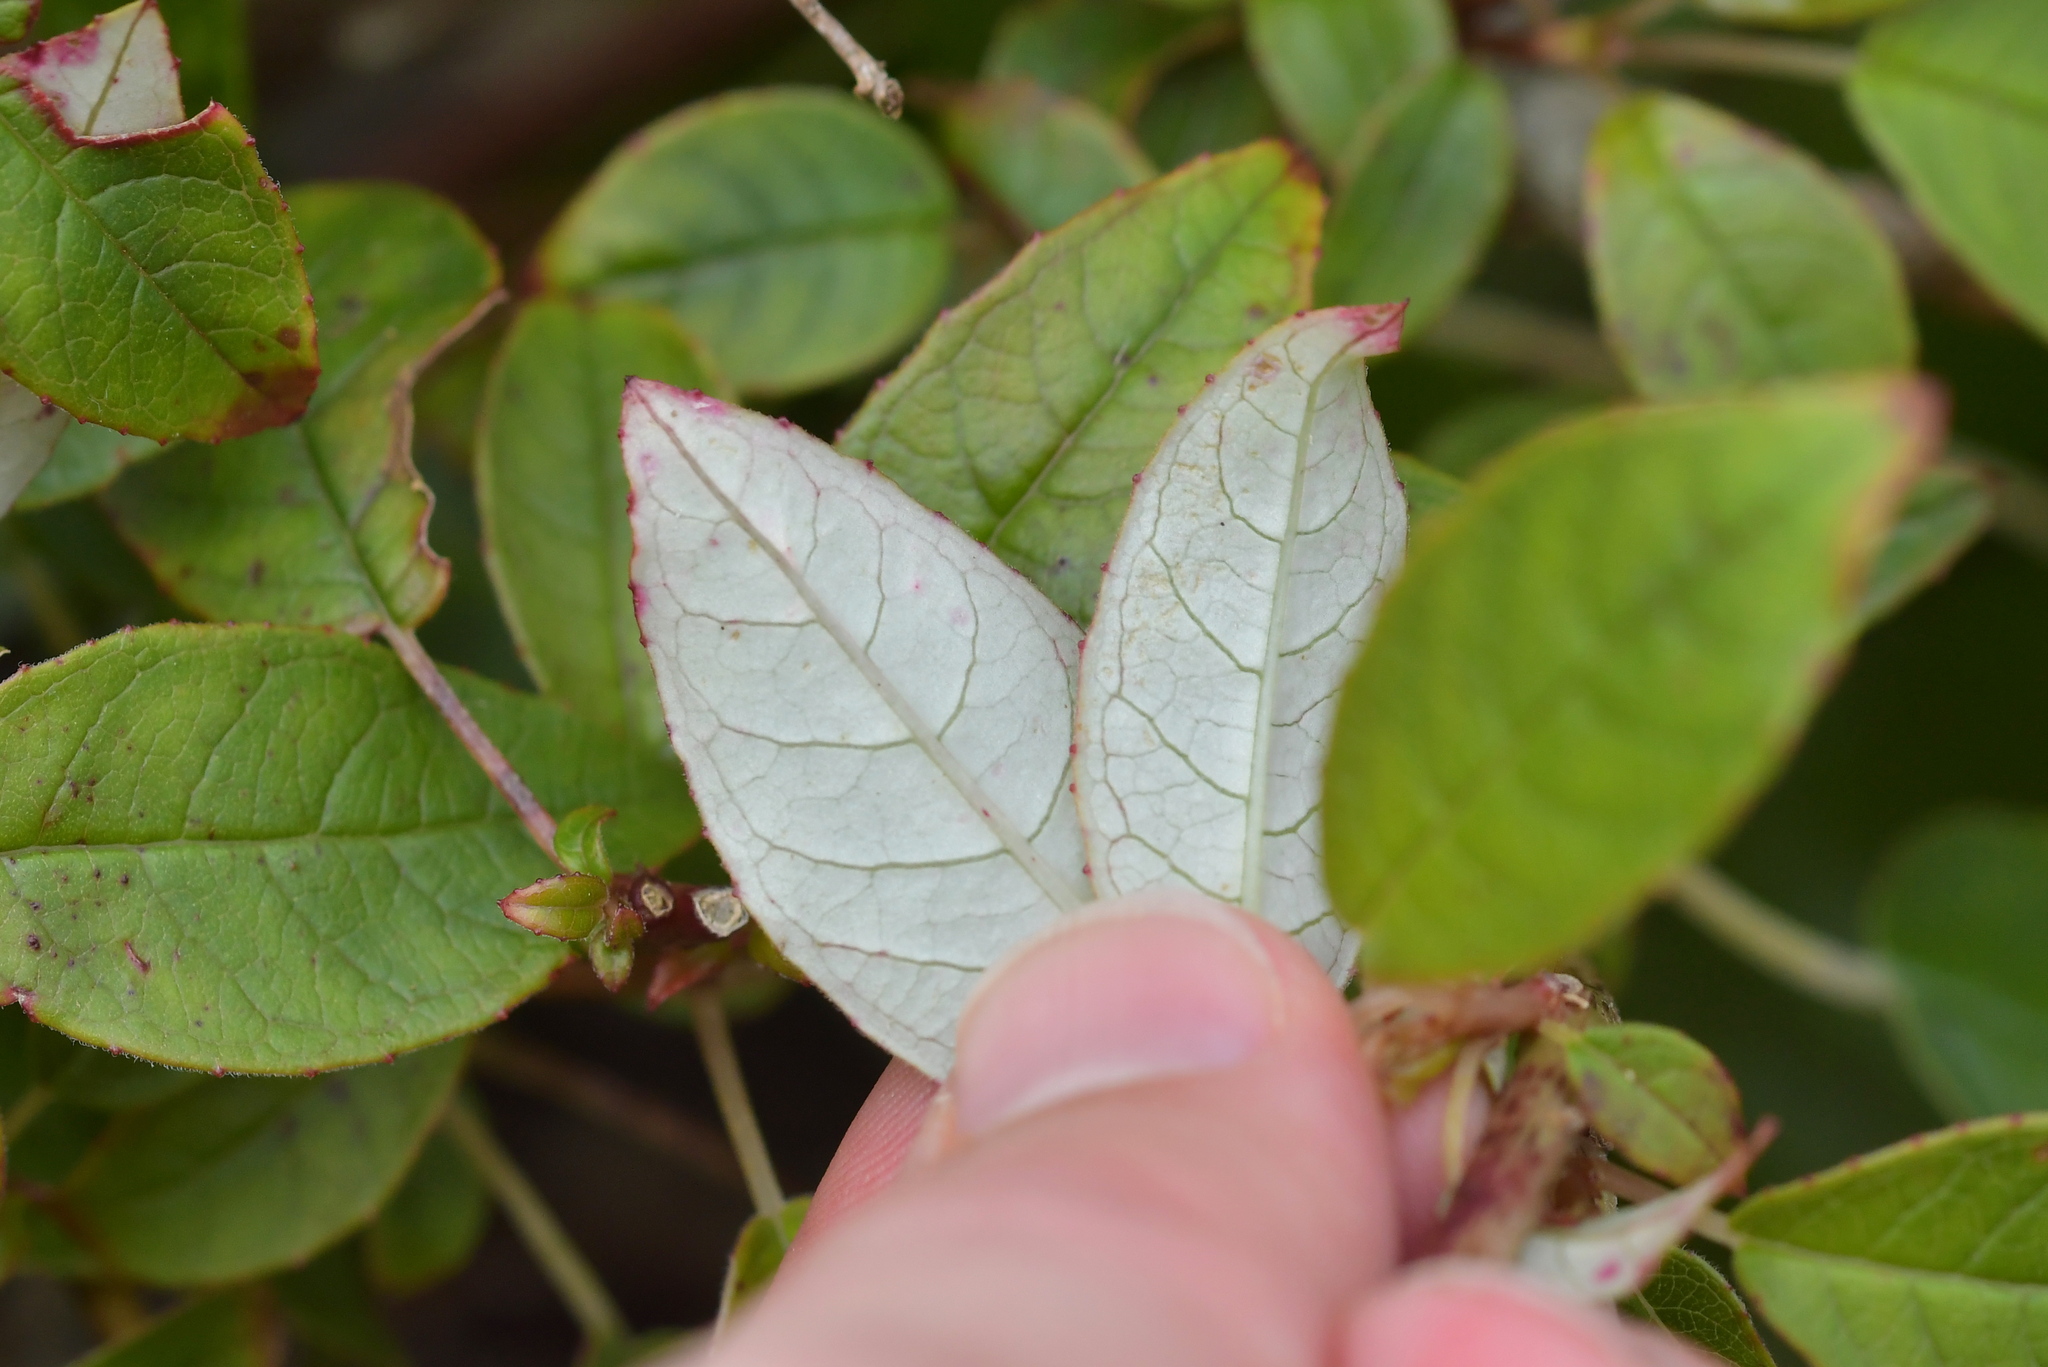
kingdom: Plantae
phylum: Tracheophyta
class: Magnoliopsida
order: Myrtales
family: Onagraceae
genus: Fuchsia
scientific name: Fuchsia excorticata
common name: Tree fuchsia
